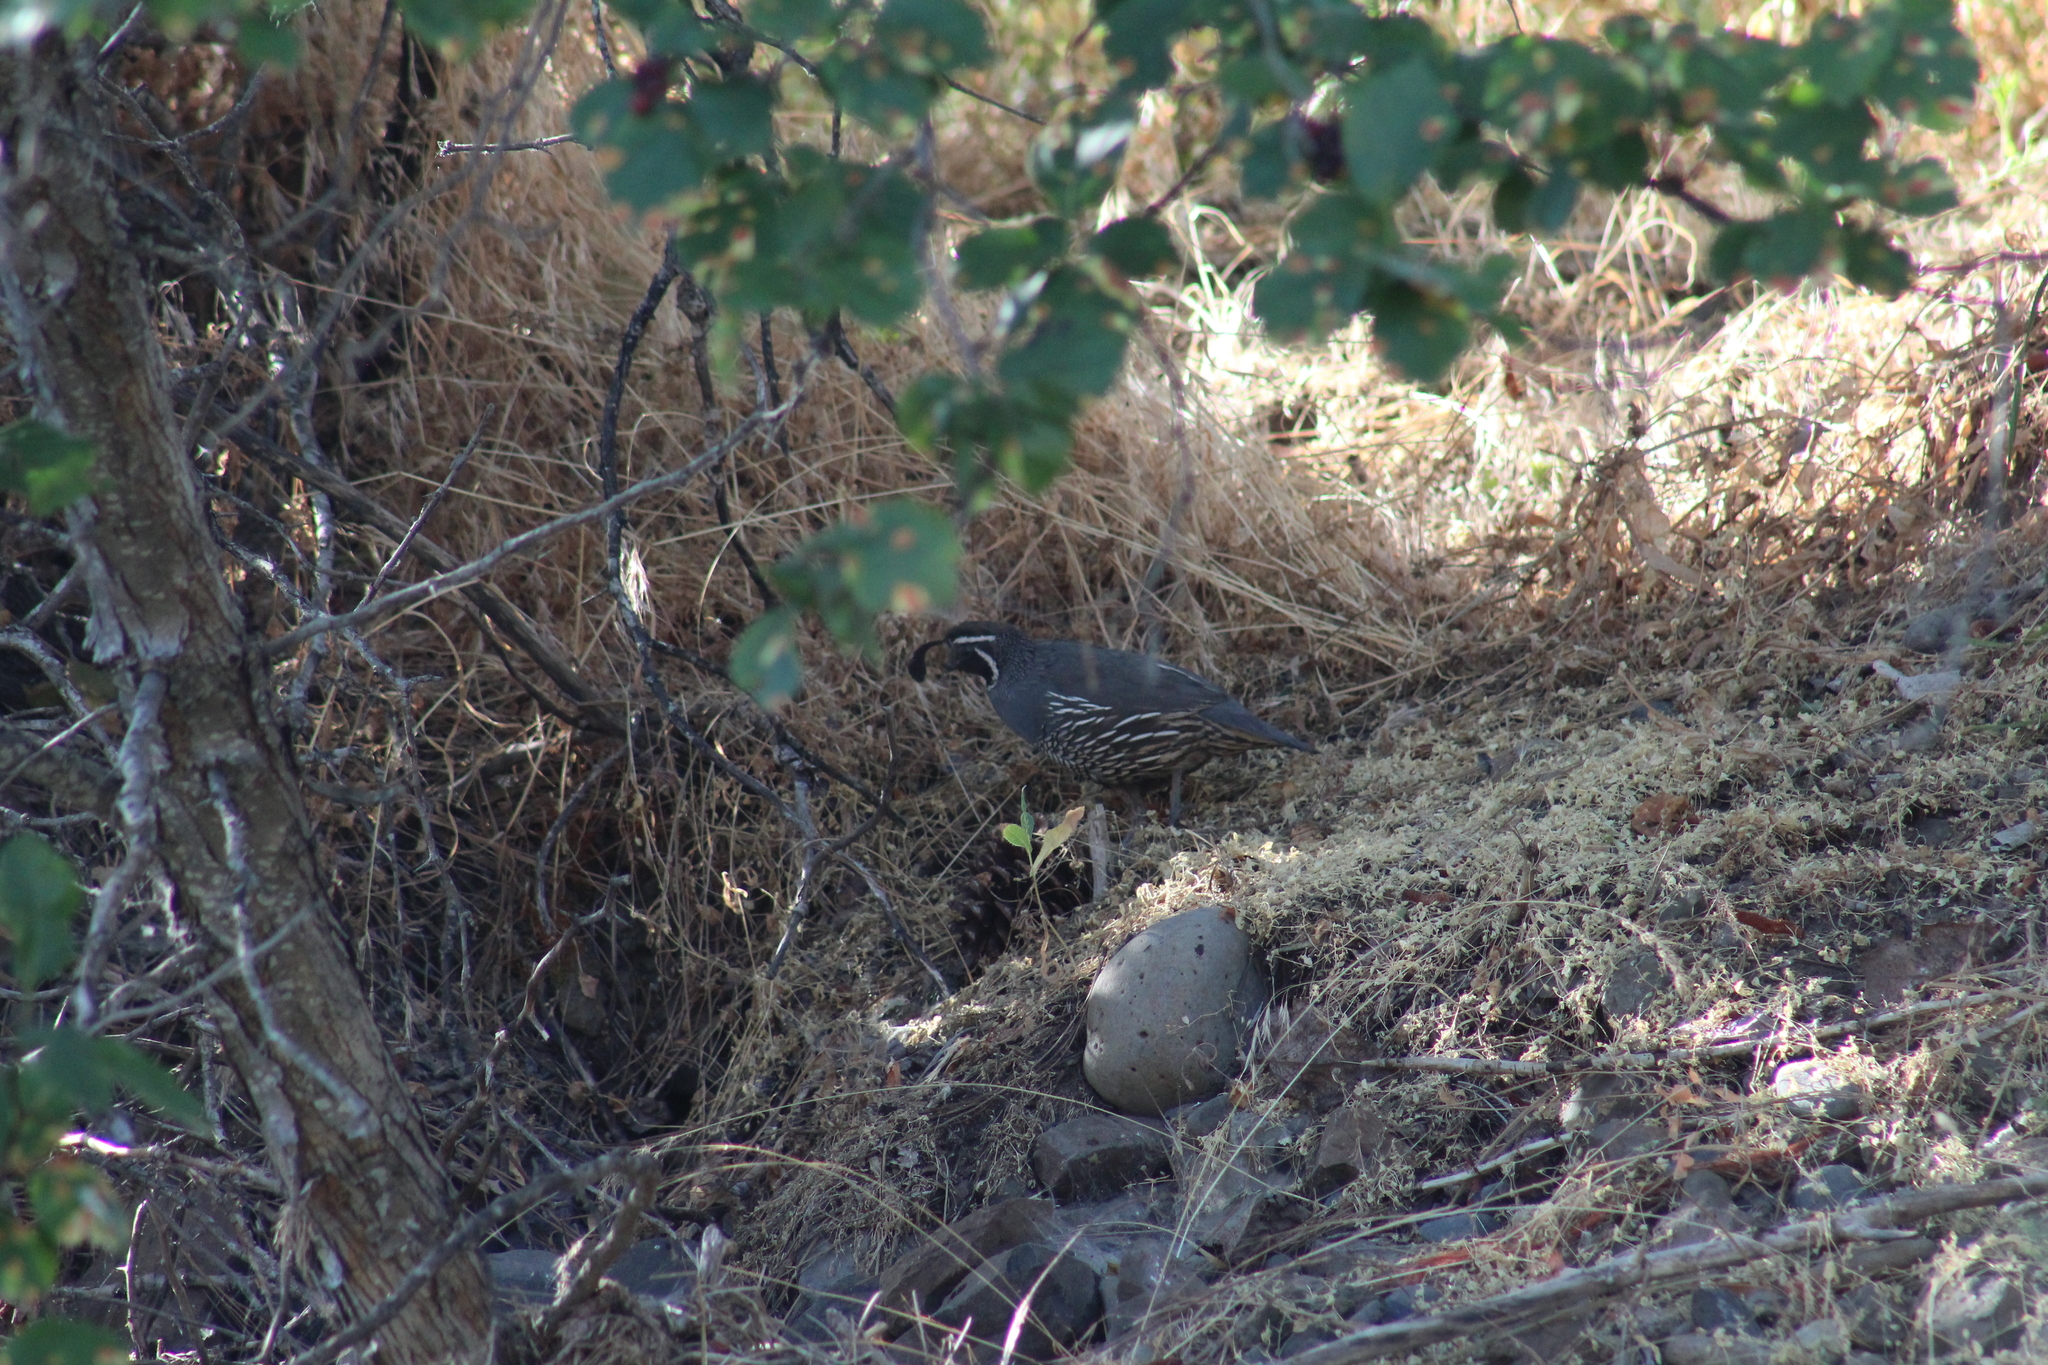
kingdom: Animalia
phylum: Chordata
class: Aves
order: Galliformes
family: Odontophoridae
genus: Callipepla
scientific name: Callipepla californica
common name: California quail
